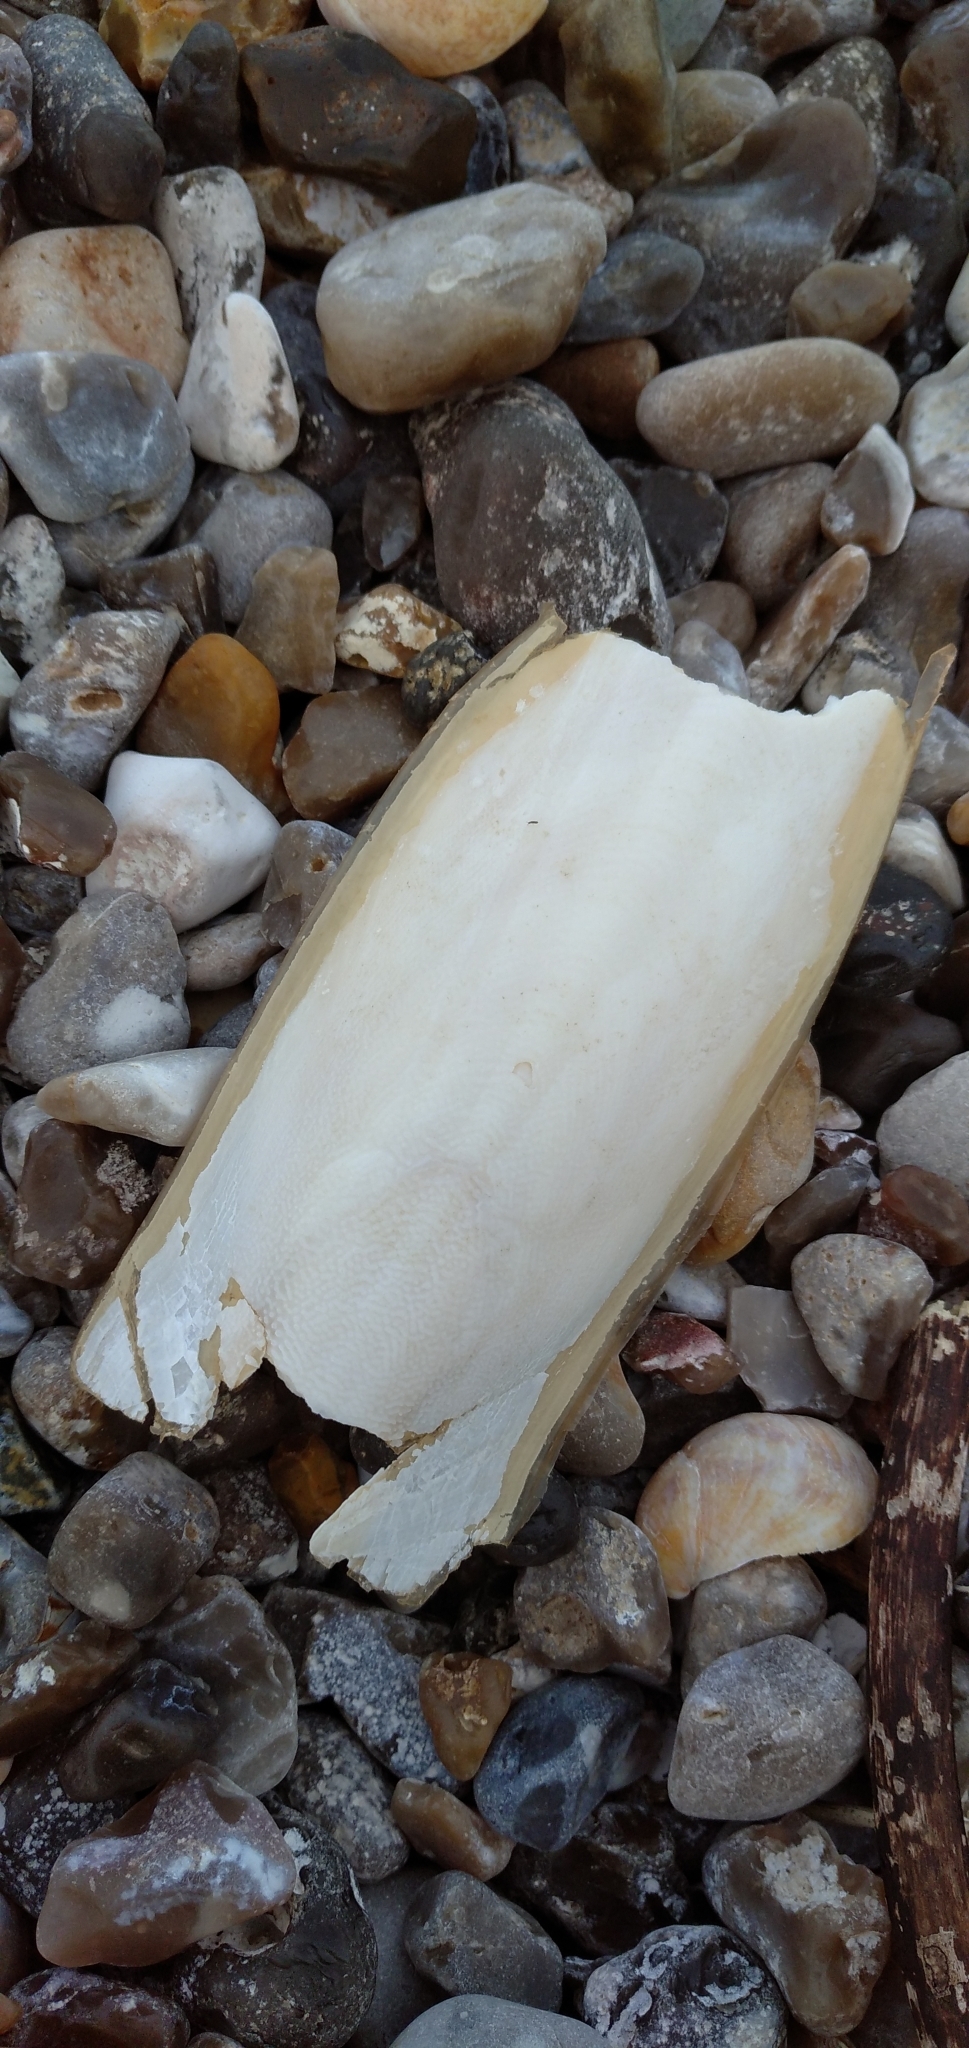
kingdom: Animalia
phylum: Mollusca
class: Cephalopoda
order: Sepiida
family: Sepiidae
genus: Sepia
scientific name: Sepia officinalis
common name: Common cuttlefish
